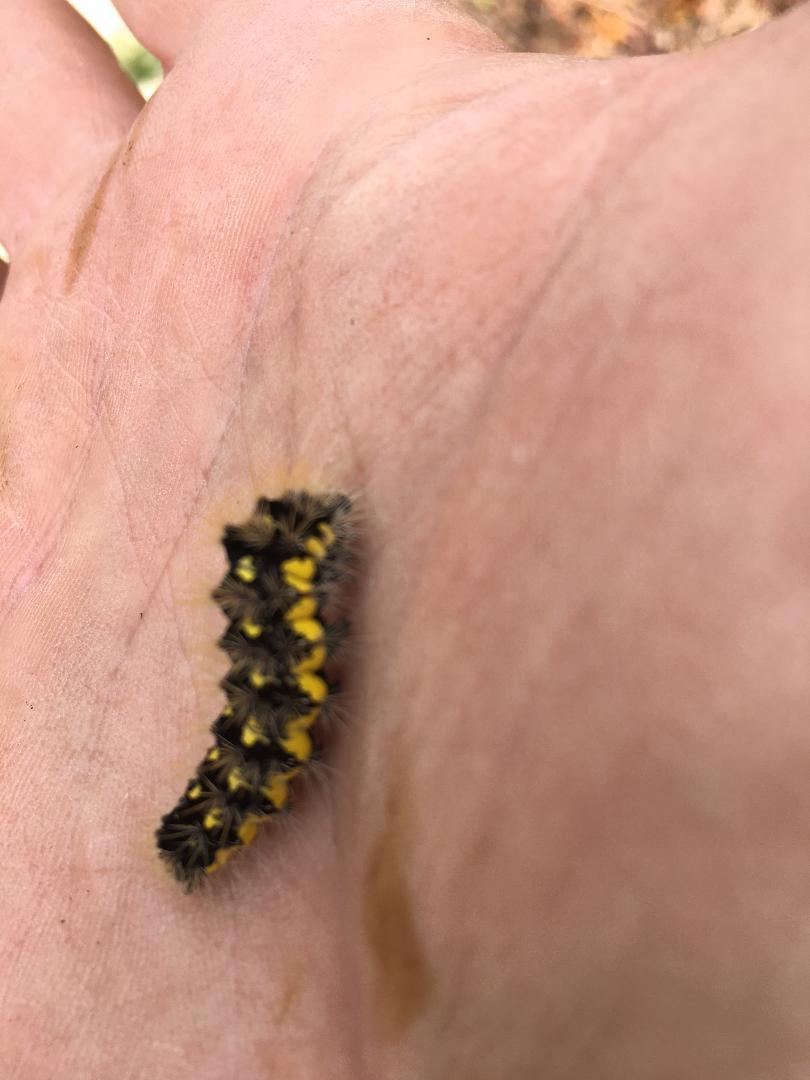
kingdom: Animalia
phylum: Arthropoda
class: Insecta
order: Lepidoptera
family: Noctuidae
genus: Acronicta
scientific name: Acronicta oblinita
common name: Smeared dagger
